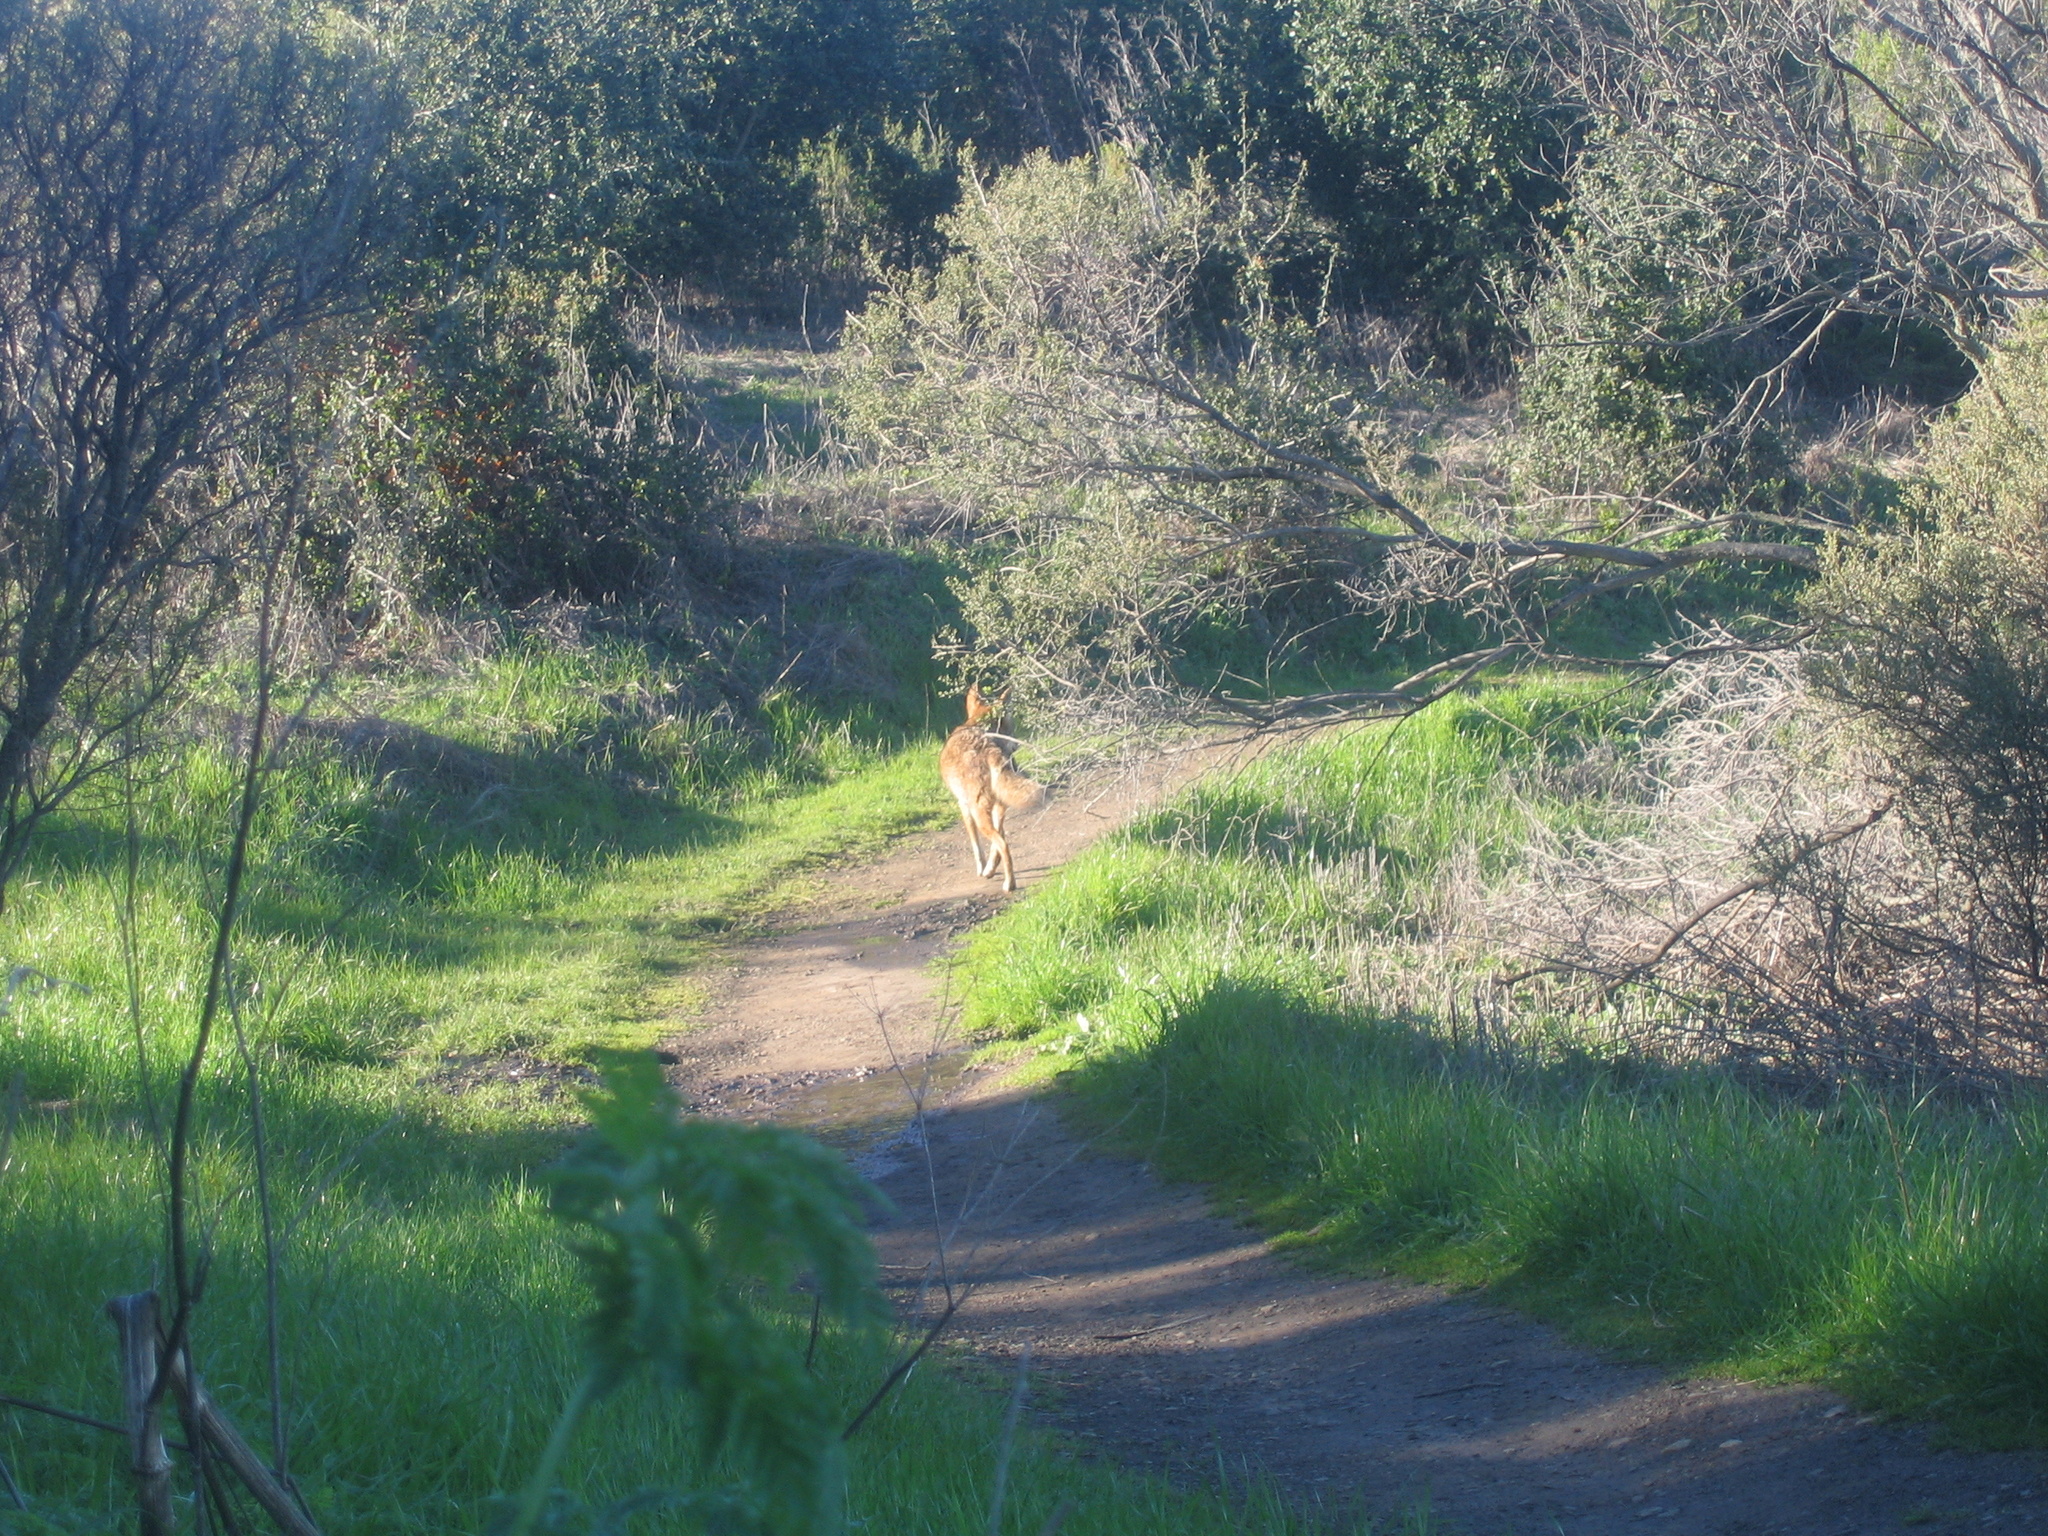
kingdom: Animalia
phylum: Chordata
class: Mammalia
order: Carnivora
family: Canidae
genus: Canis
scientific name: Canis latrans
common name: Coyote
